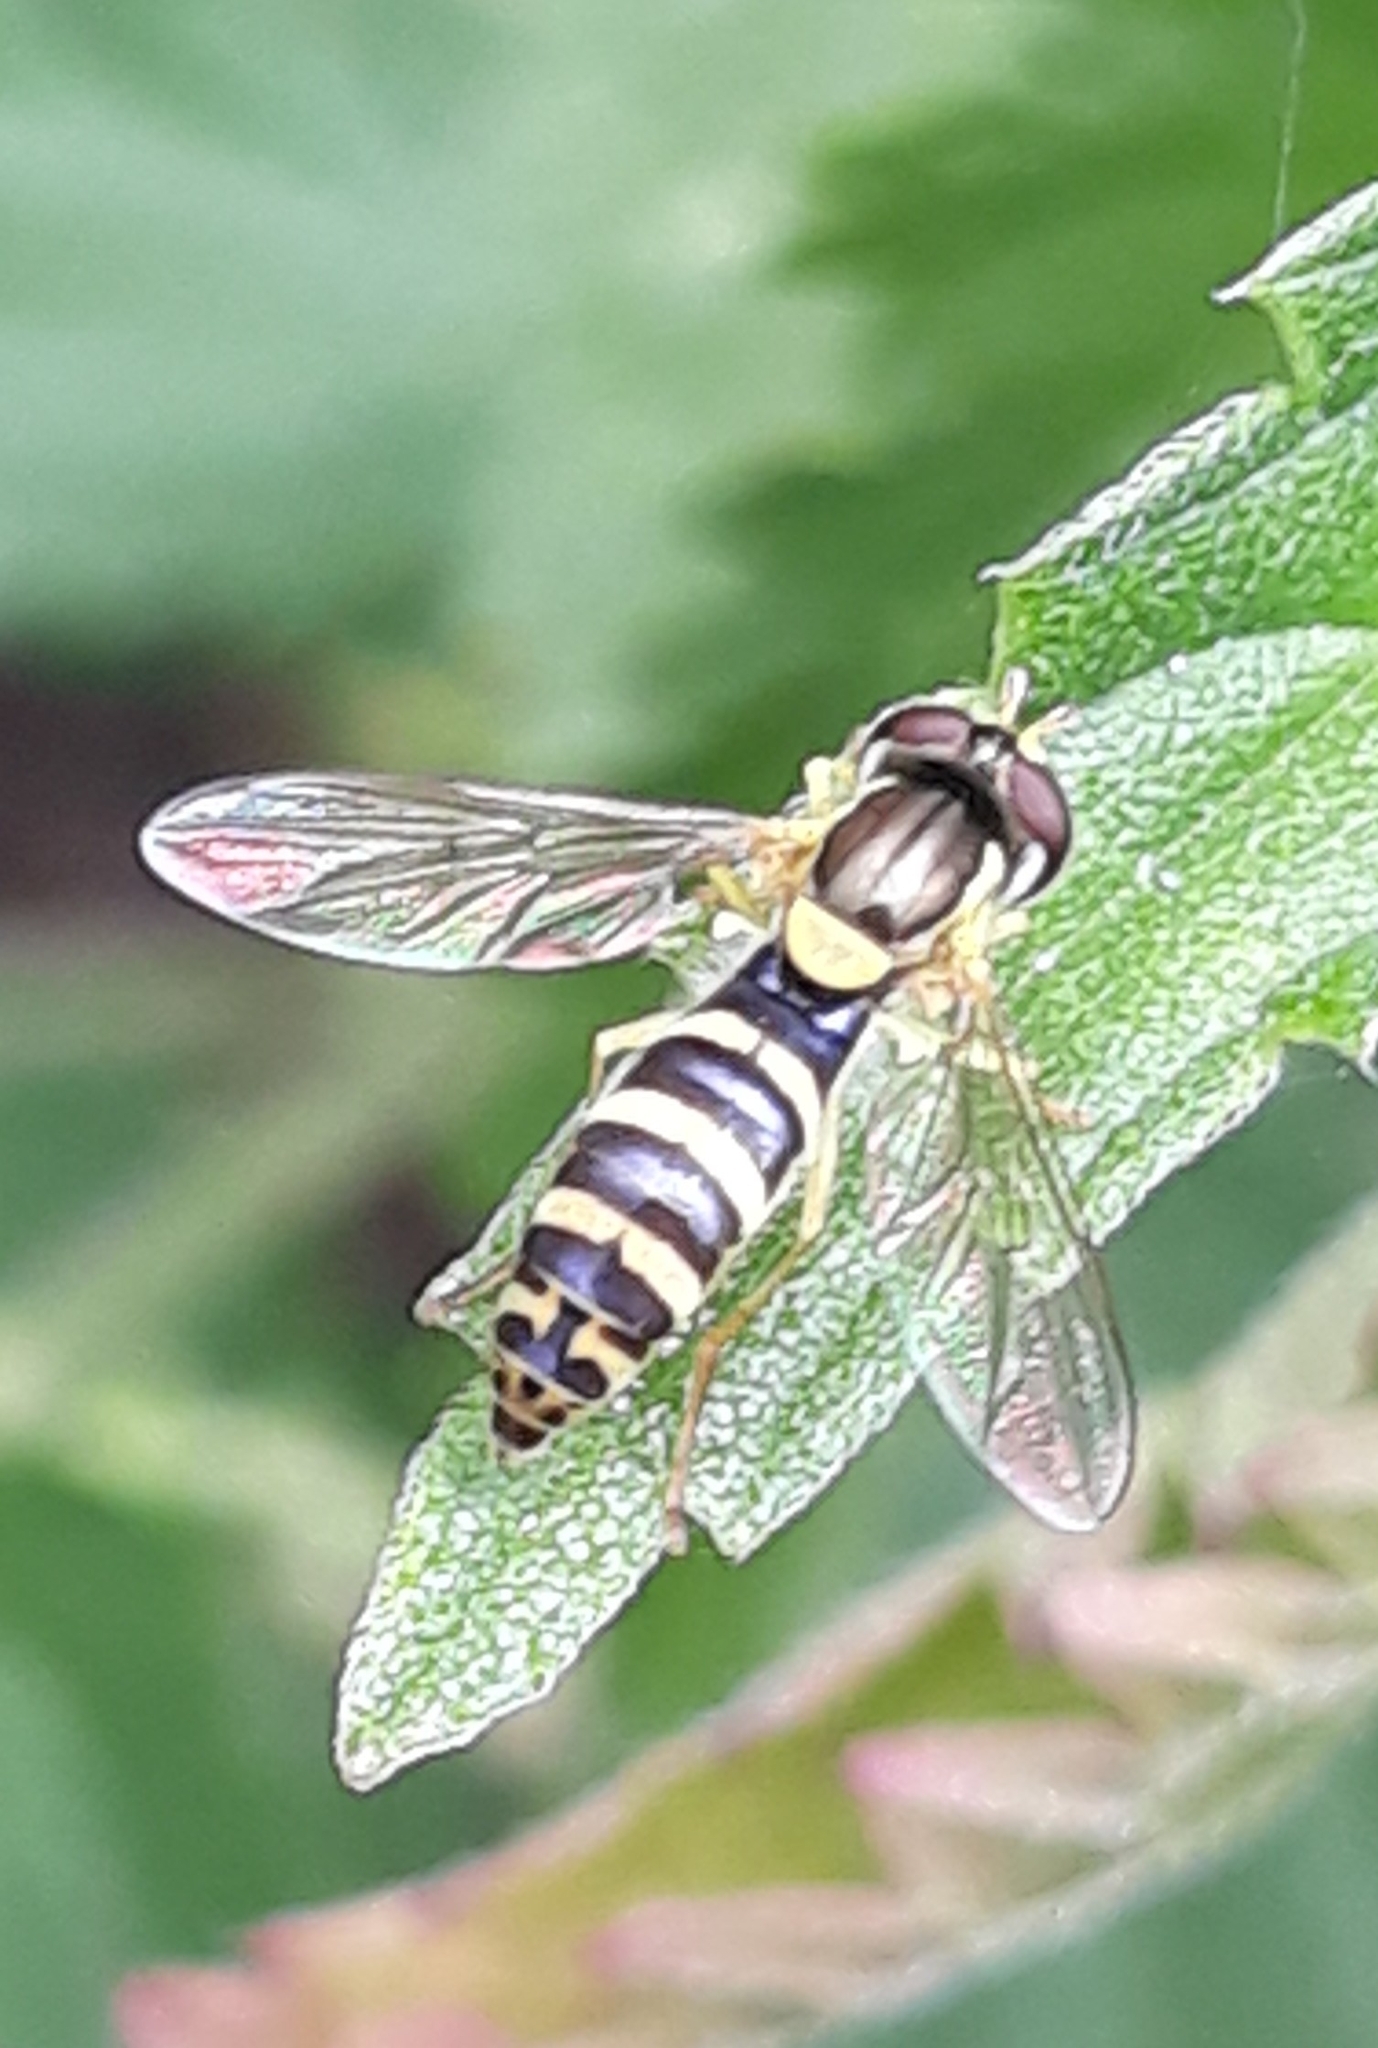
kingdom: Animalia
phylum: Arthropoda
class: Insecta
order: Diptera
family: Syrphidae
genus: Sphaerophoria
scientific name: Sphaerophoria
